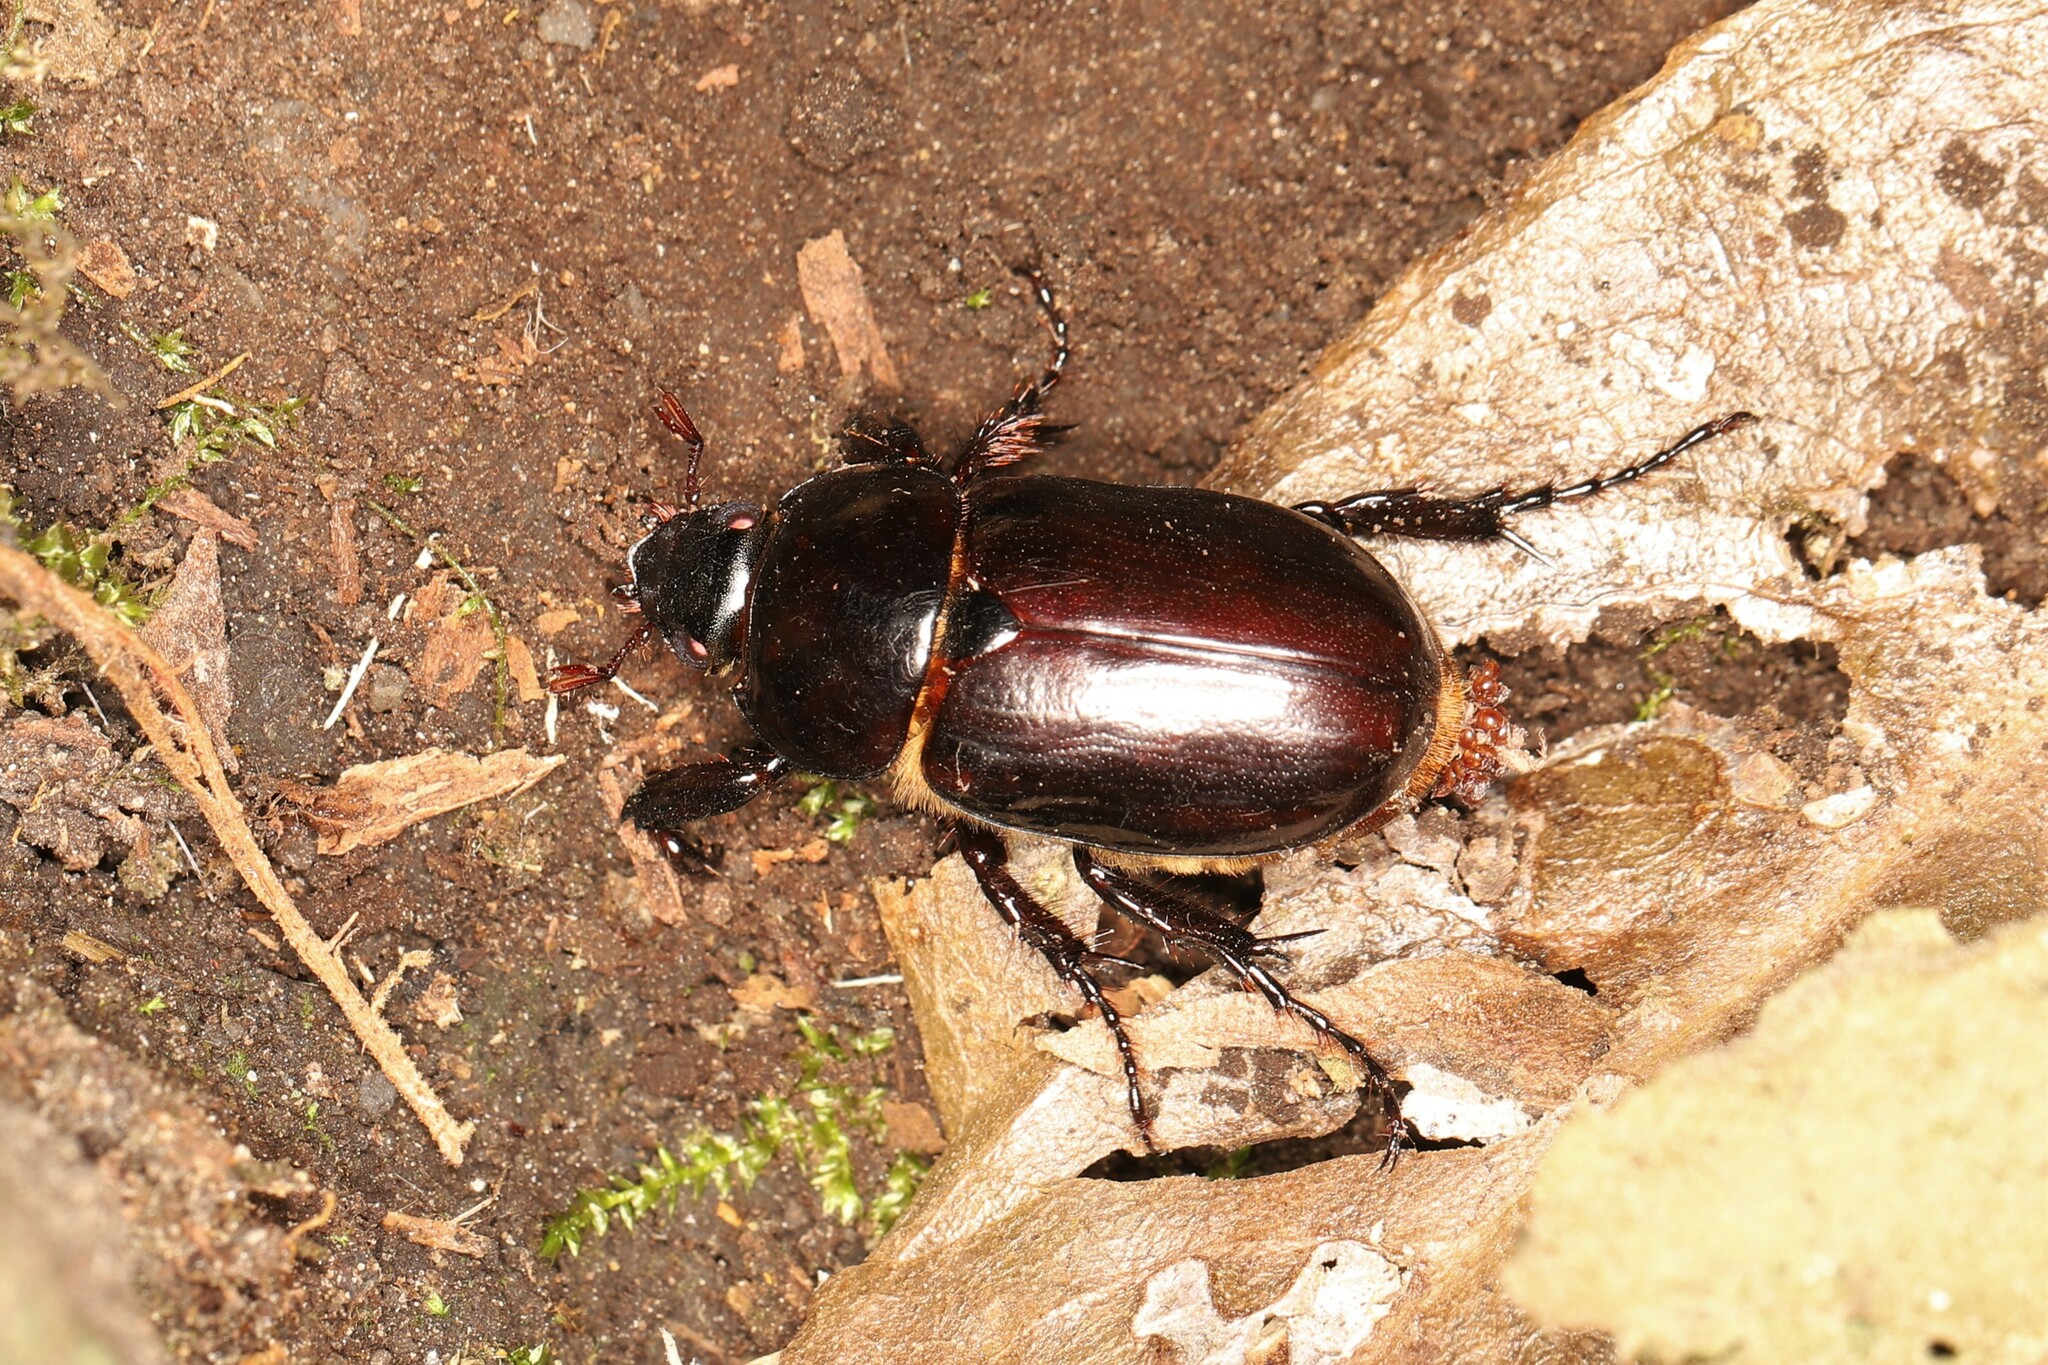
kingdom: Animalia
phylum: Arthropoda
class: Insecta
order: Coleoptera
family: Scarabaeidae
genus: Ancognatha
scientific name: Ancognatha scarabaeoides
